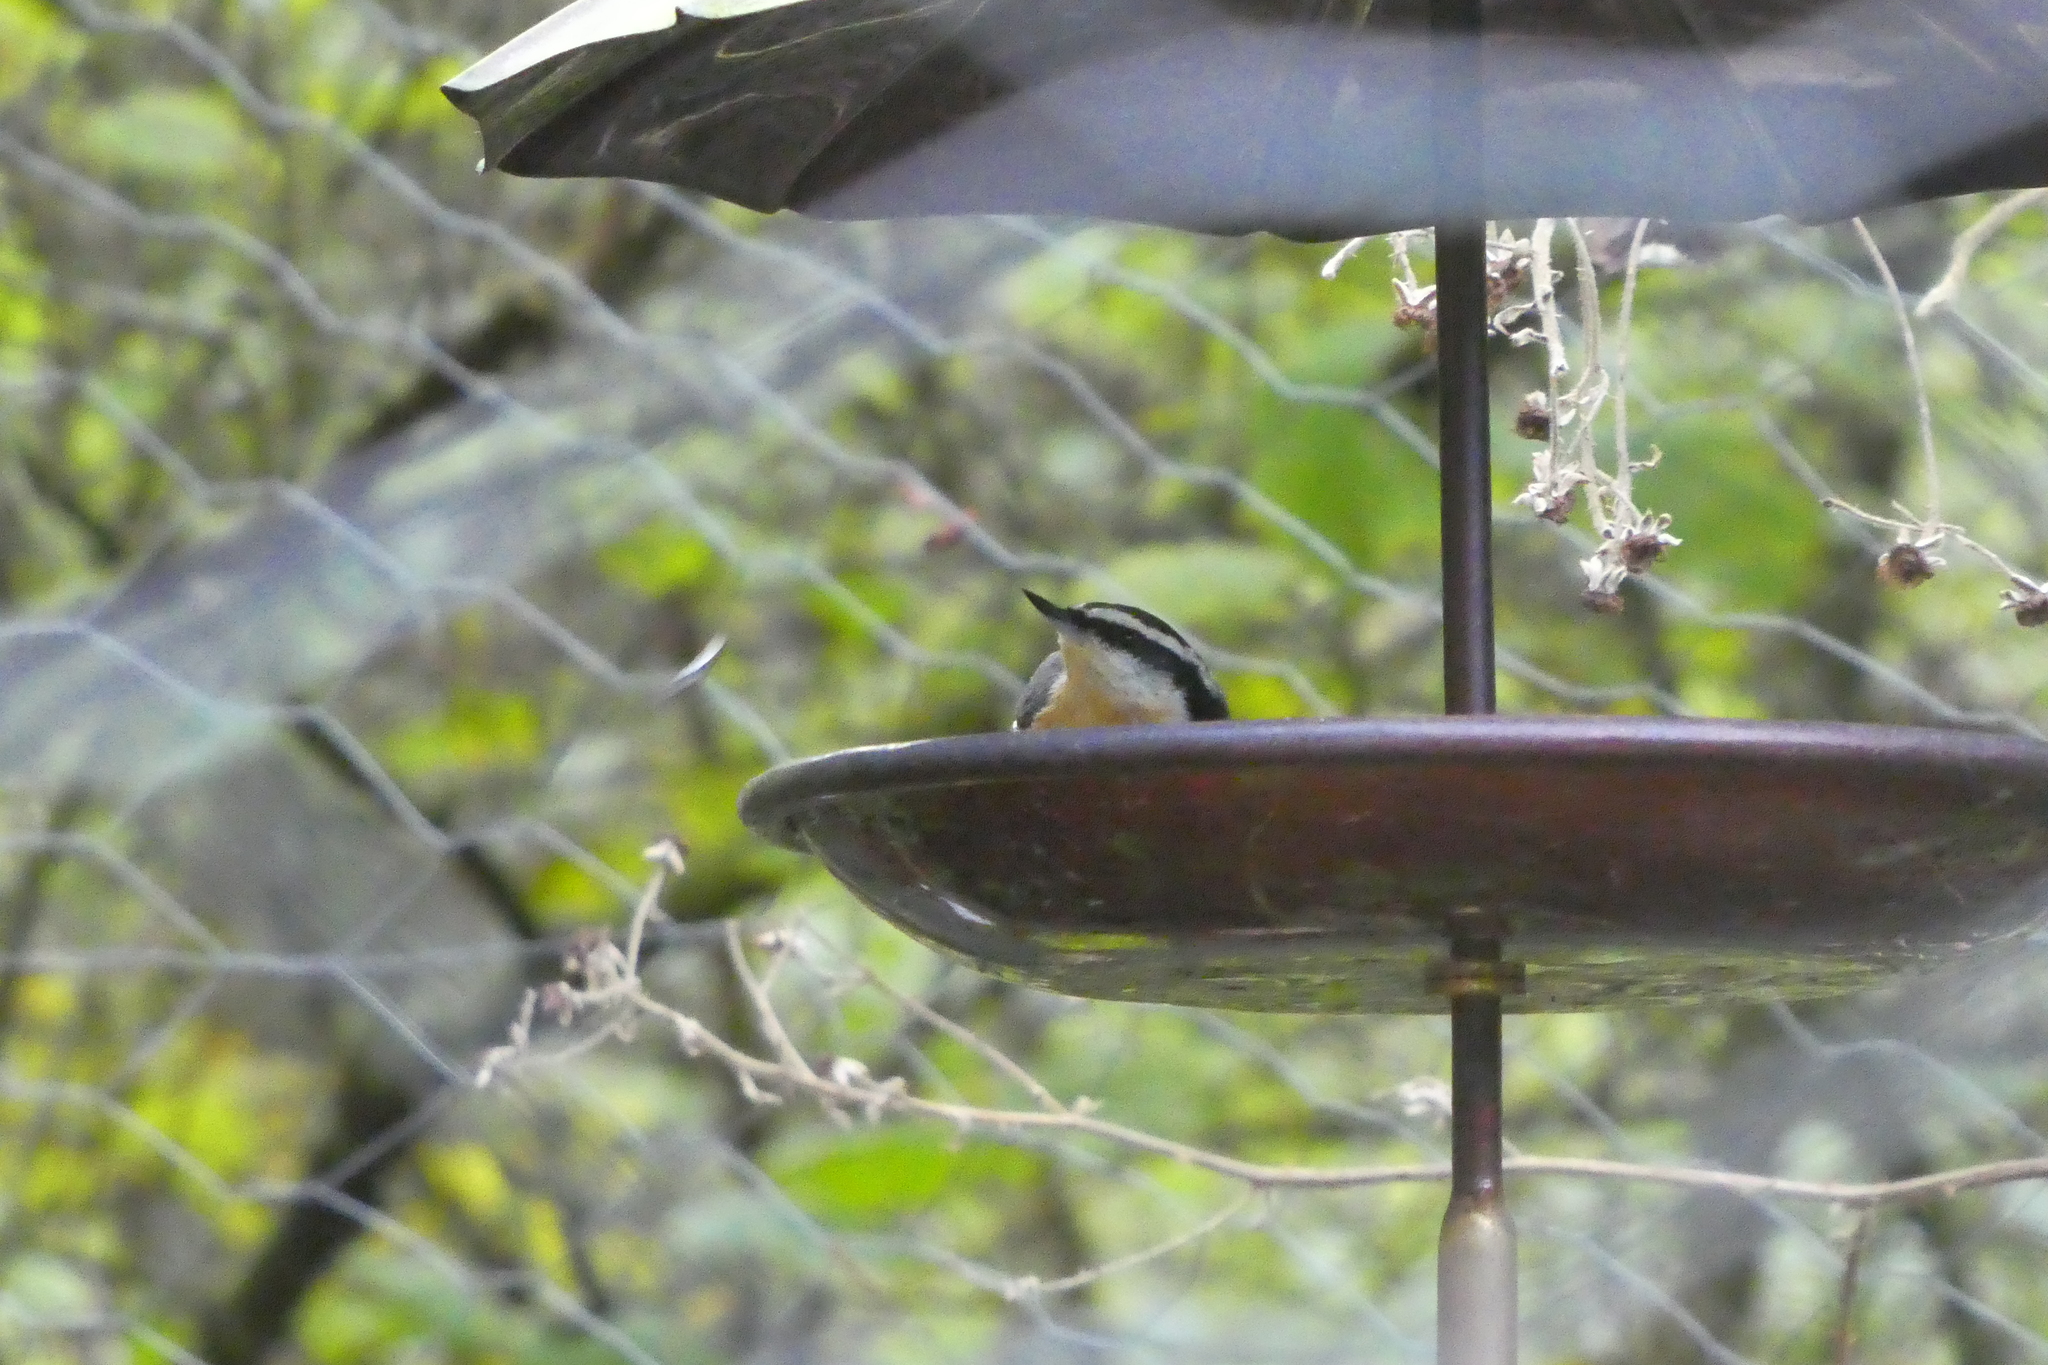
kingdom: Animalia
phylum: Chordata
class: Aves
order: Passeriformes
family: Sittidae
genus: Sitta
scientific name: Sitta canadensis
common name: Red-breasted nuthatch
